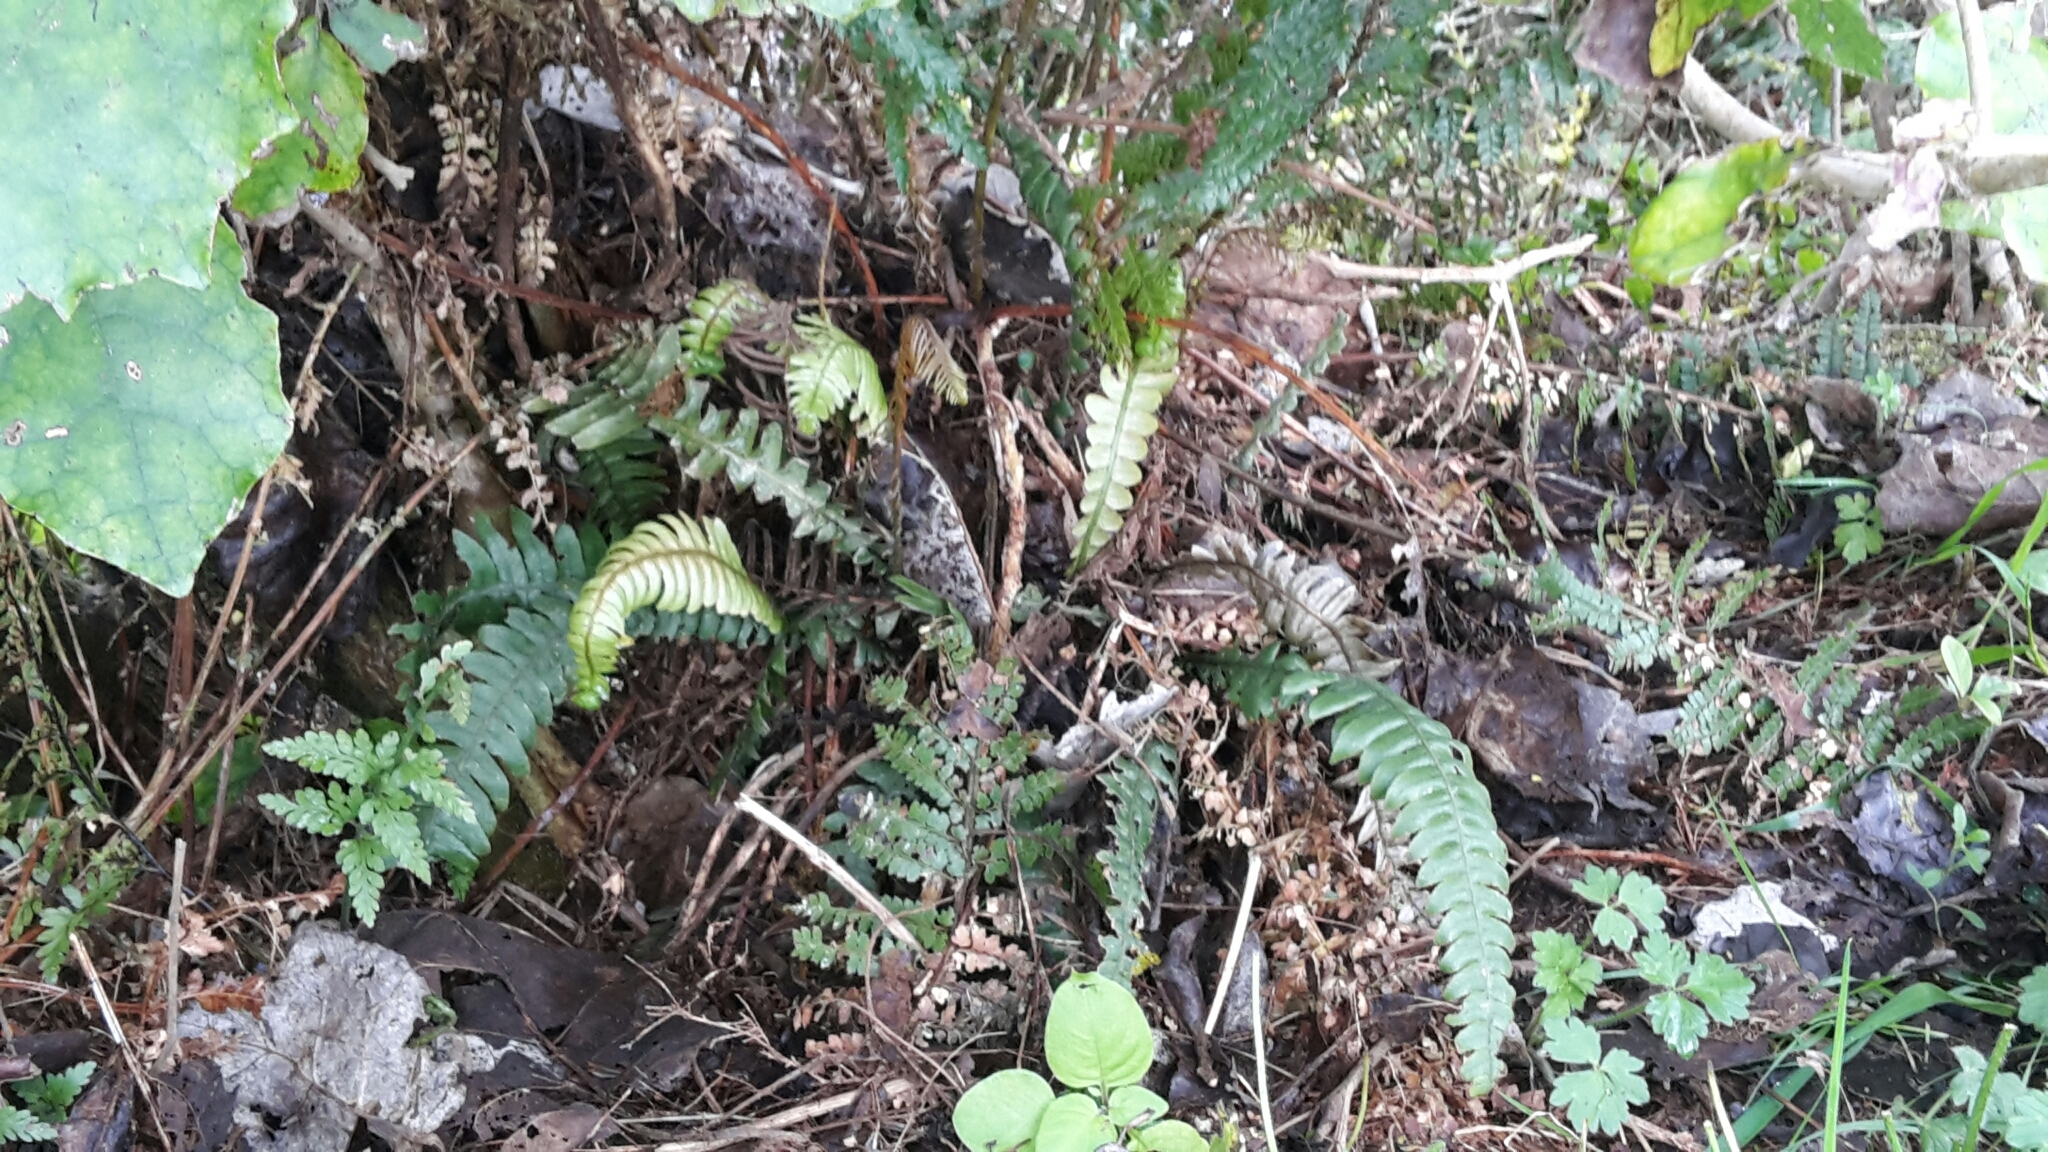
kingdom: Plantae
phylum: Tracheophyta
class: Polypodiopsida
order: Polypodiales
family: Blechnaceae
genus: Austroblechnum
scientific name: Austroblechnum lanceolatum
